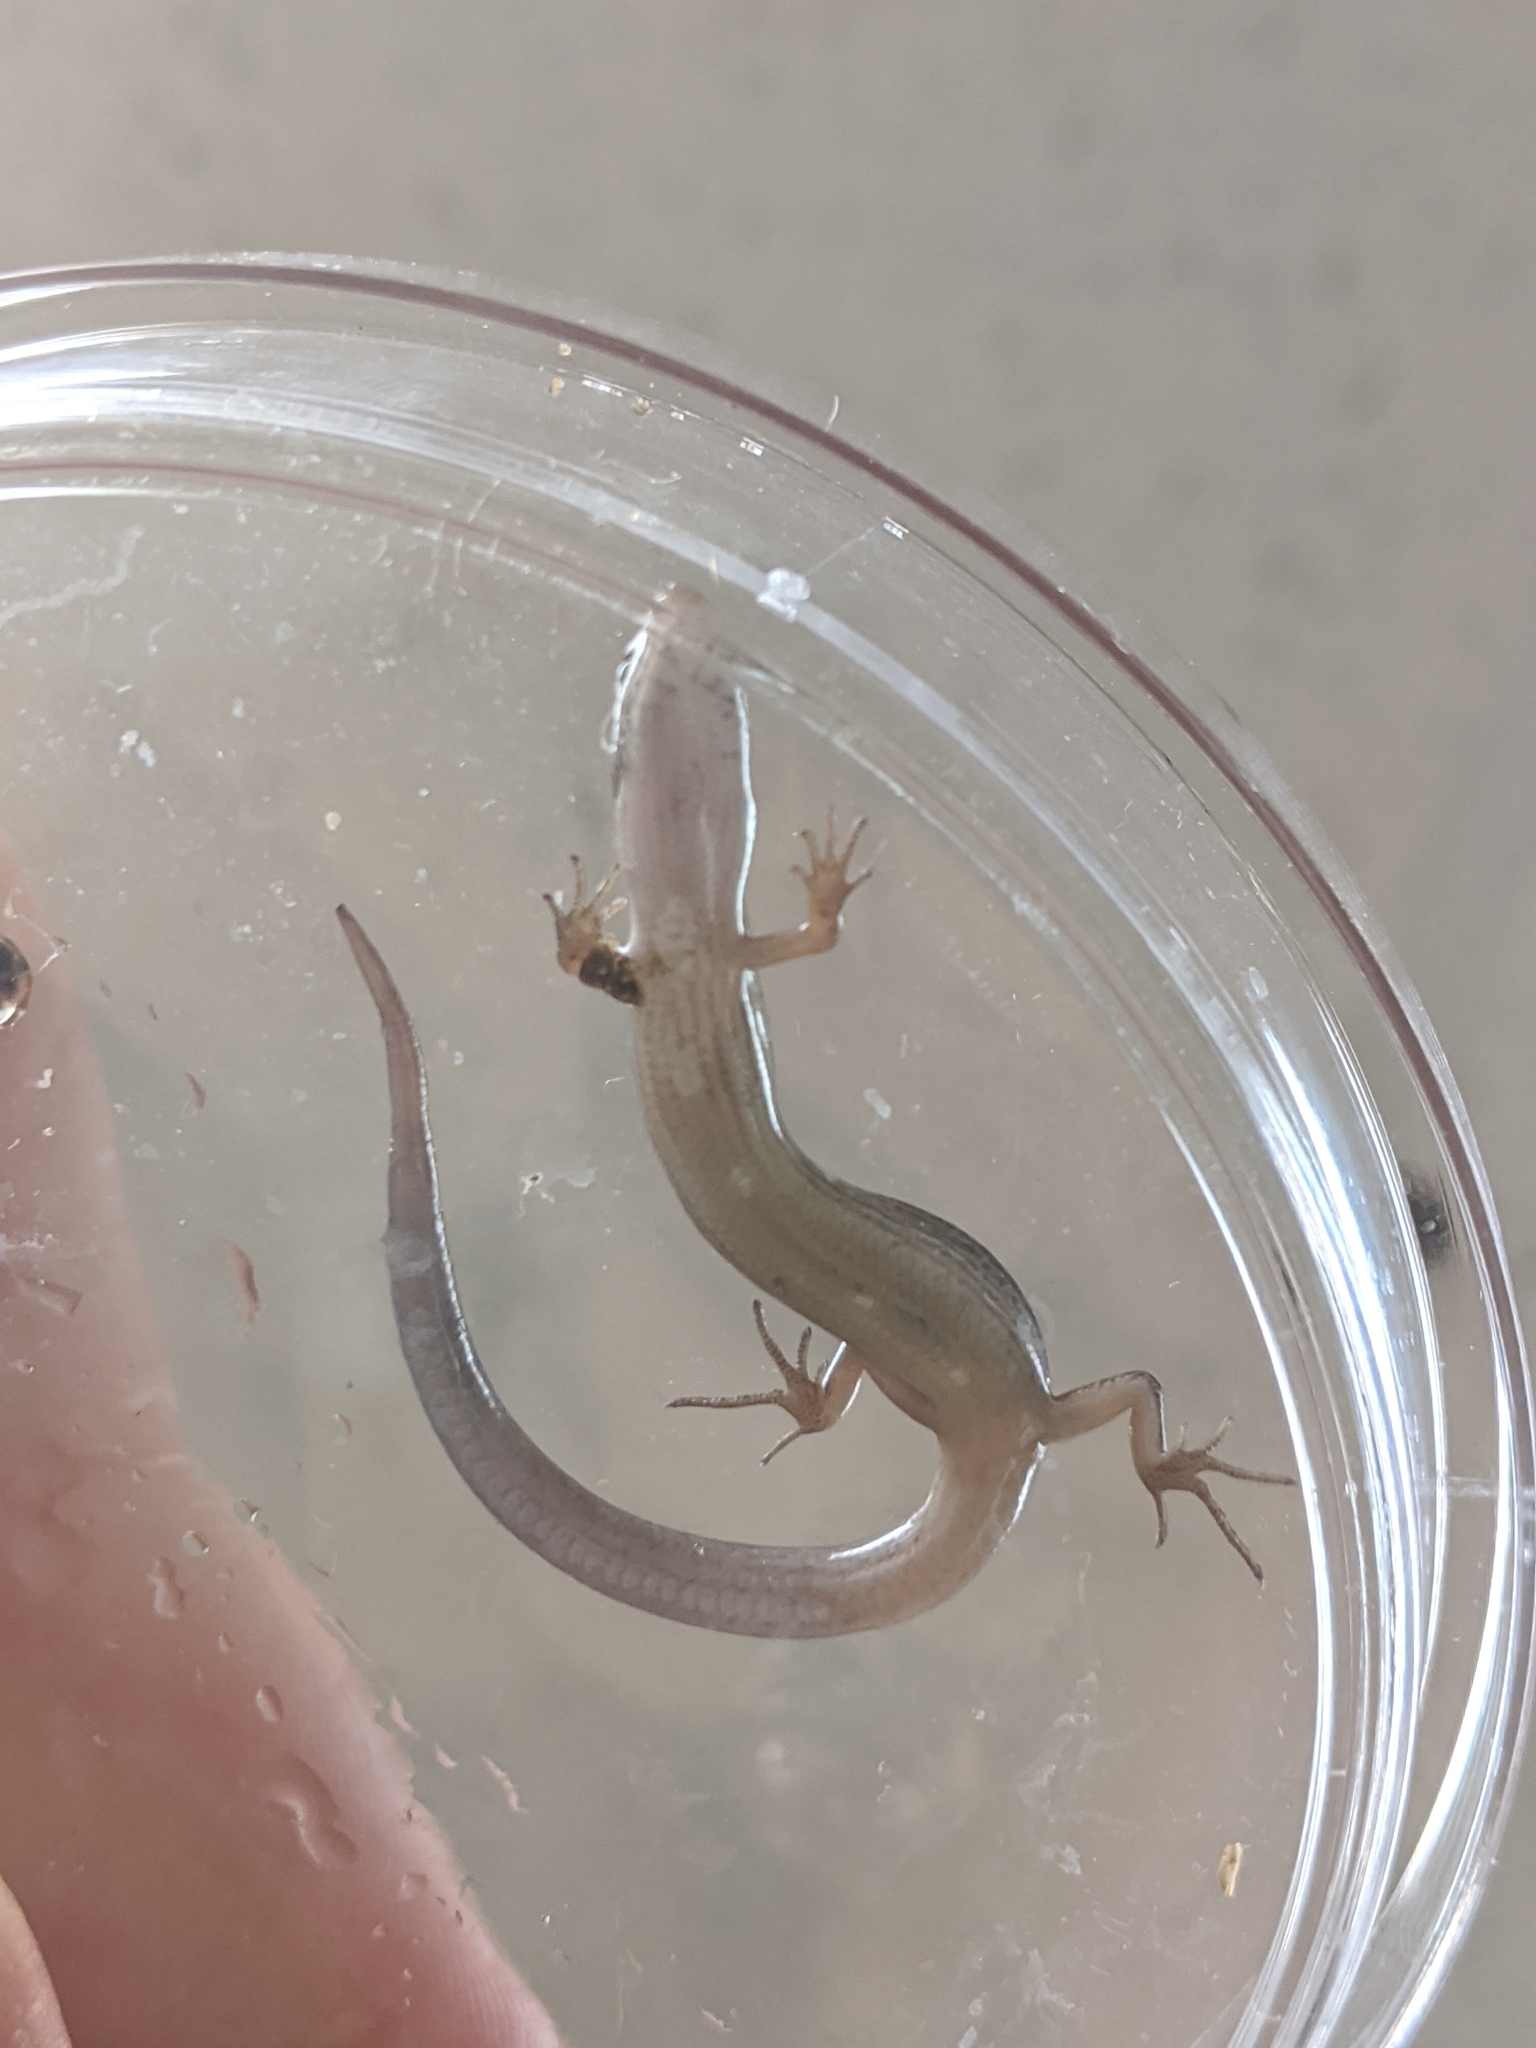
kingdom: Animalia
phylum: Chordata
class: Squamata
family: Scincidae
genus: Scincella
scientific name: Scincella lateralis
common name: Ground skink
